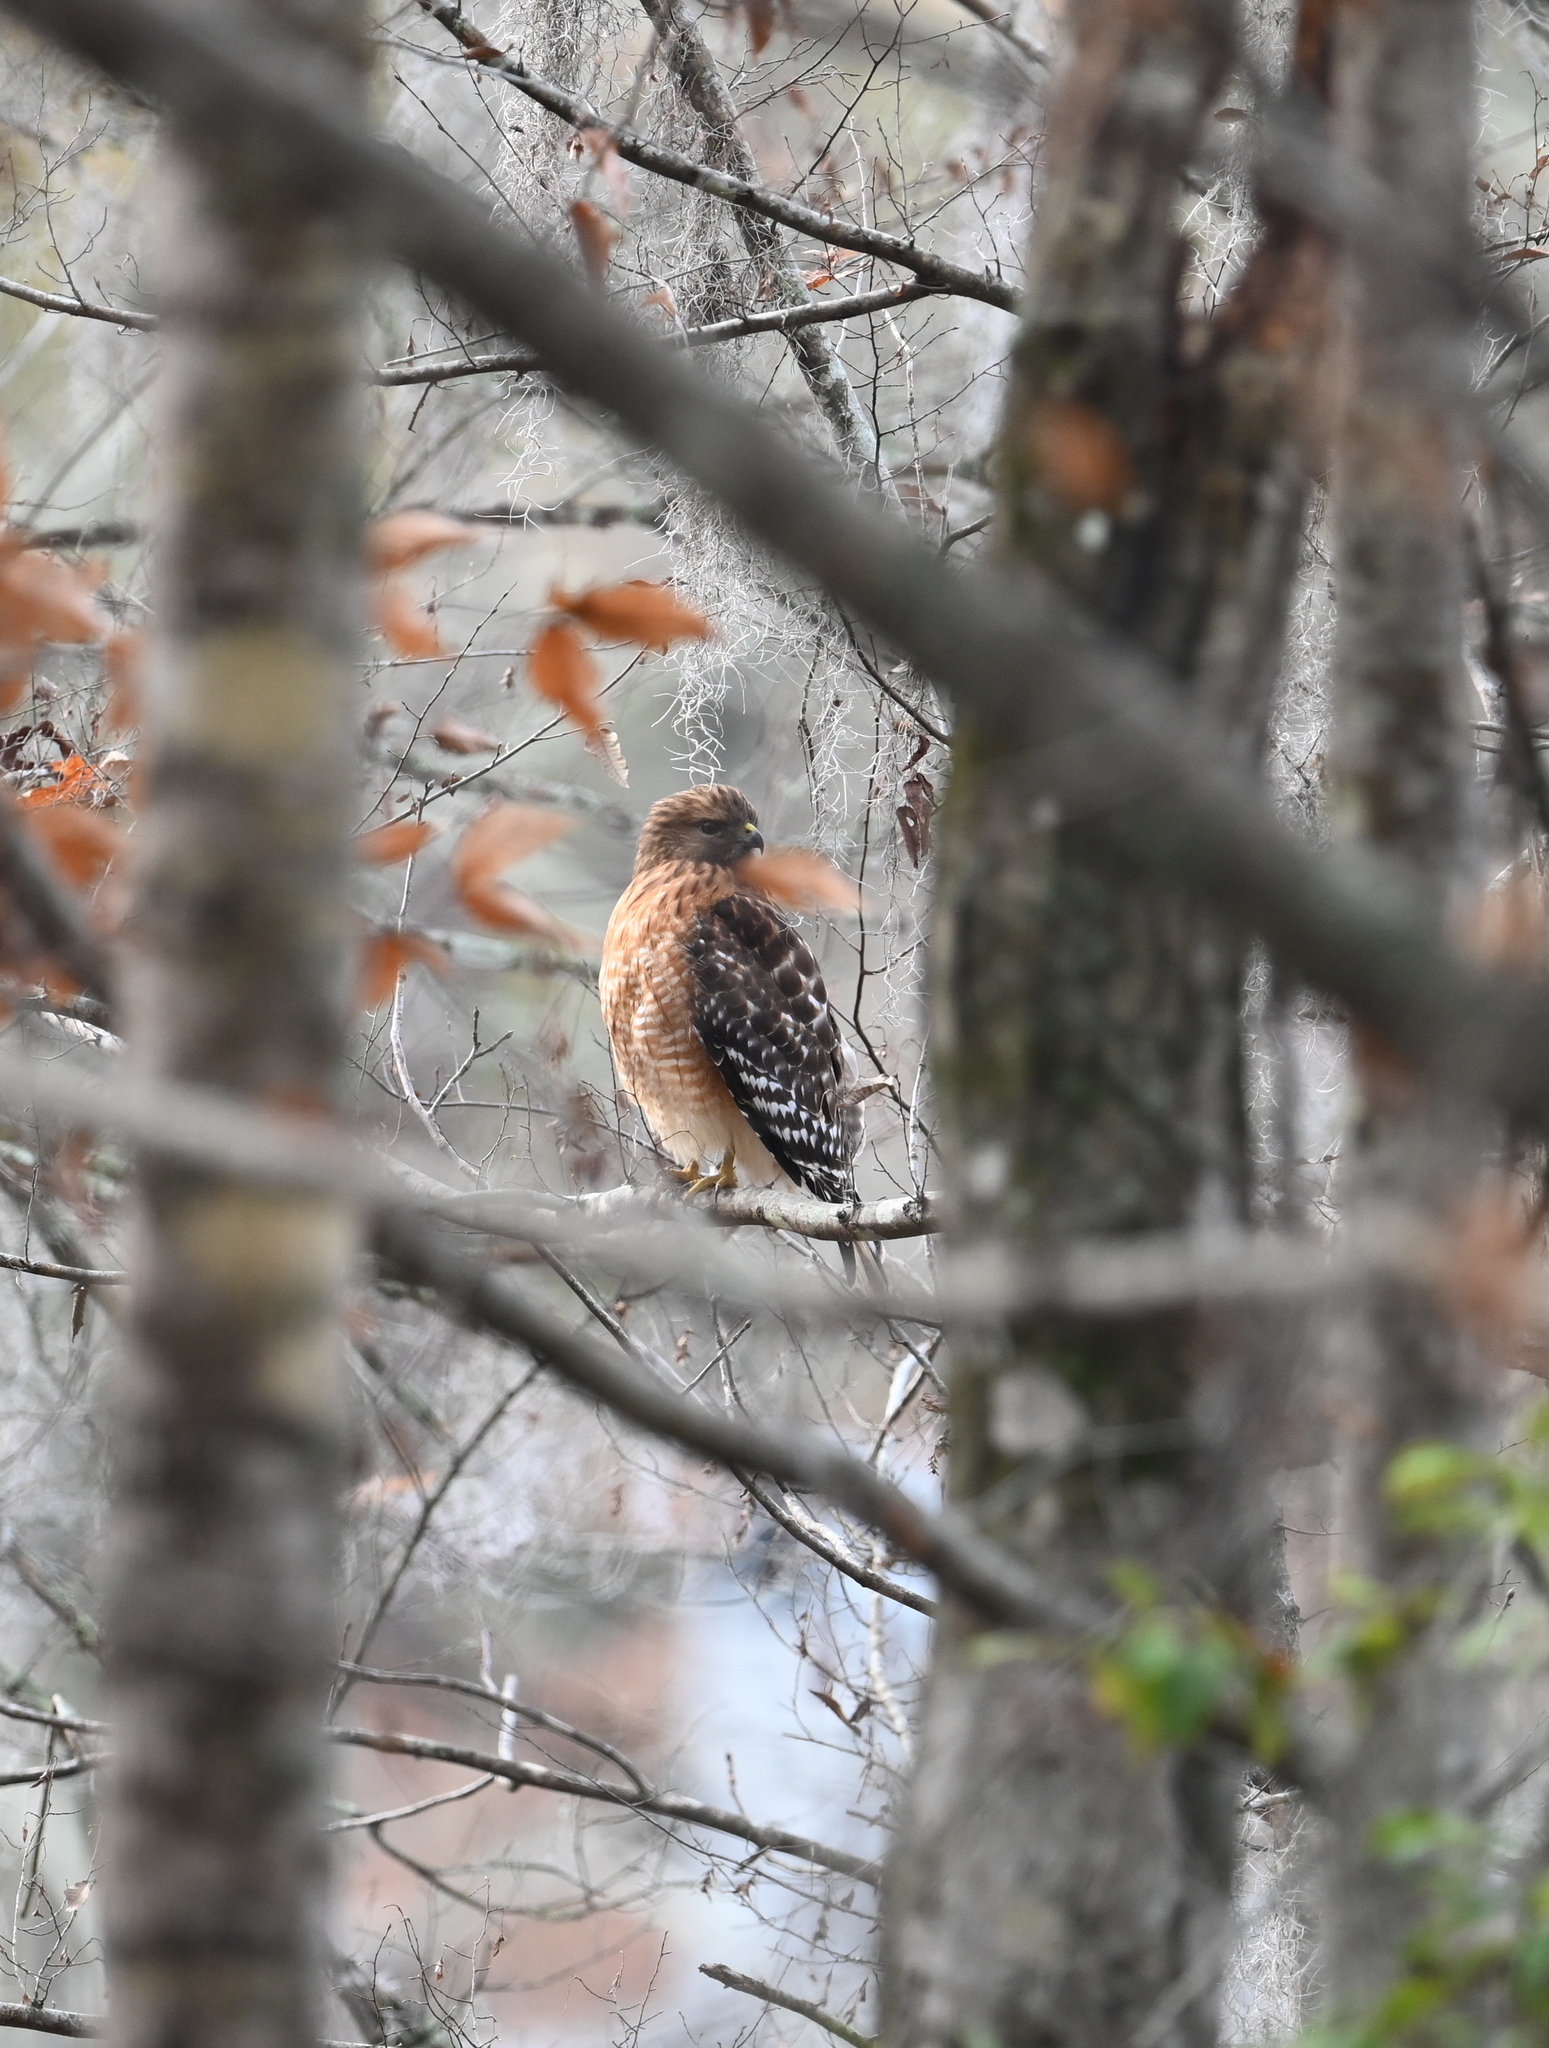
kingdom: Animalia
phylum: Chordata
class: Aves
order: Accipitriformes
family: Accipitridae
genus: Buteo
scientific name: Buteo lineatus
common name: Red-shouldered hawk
